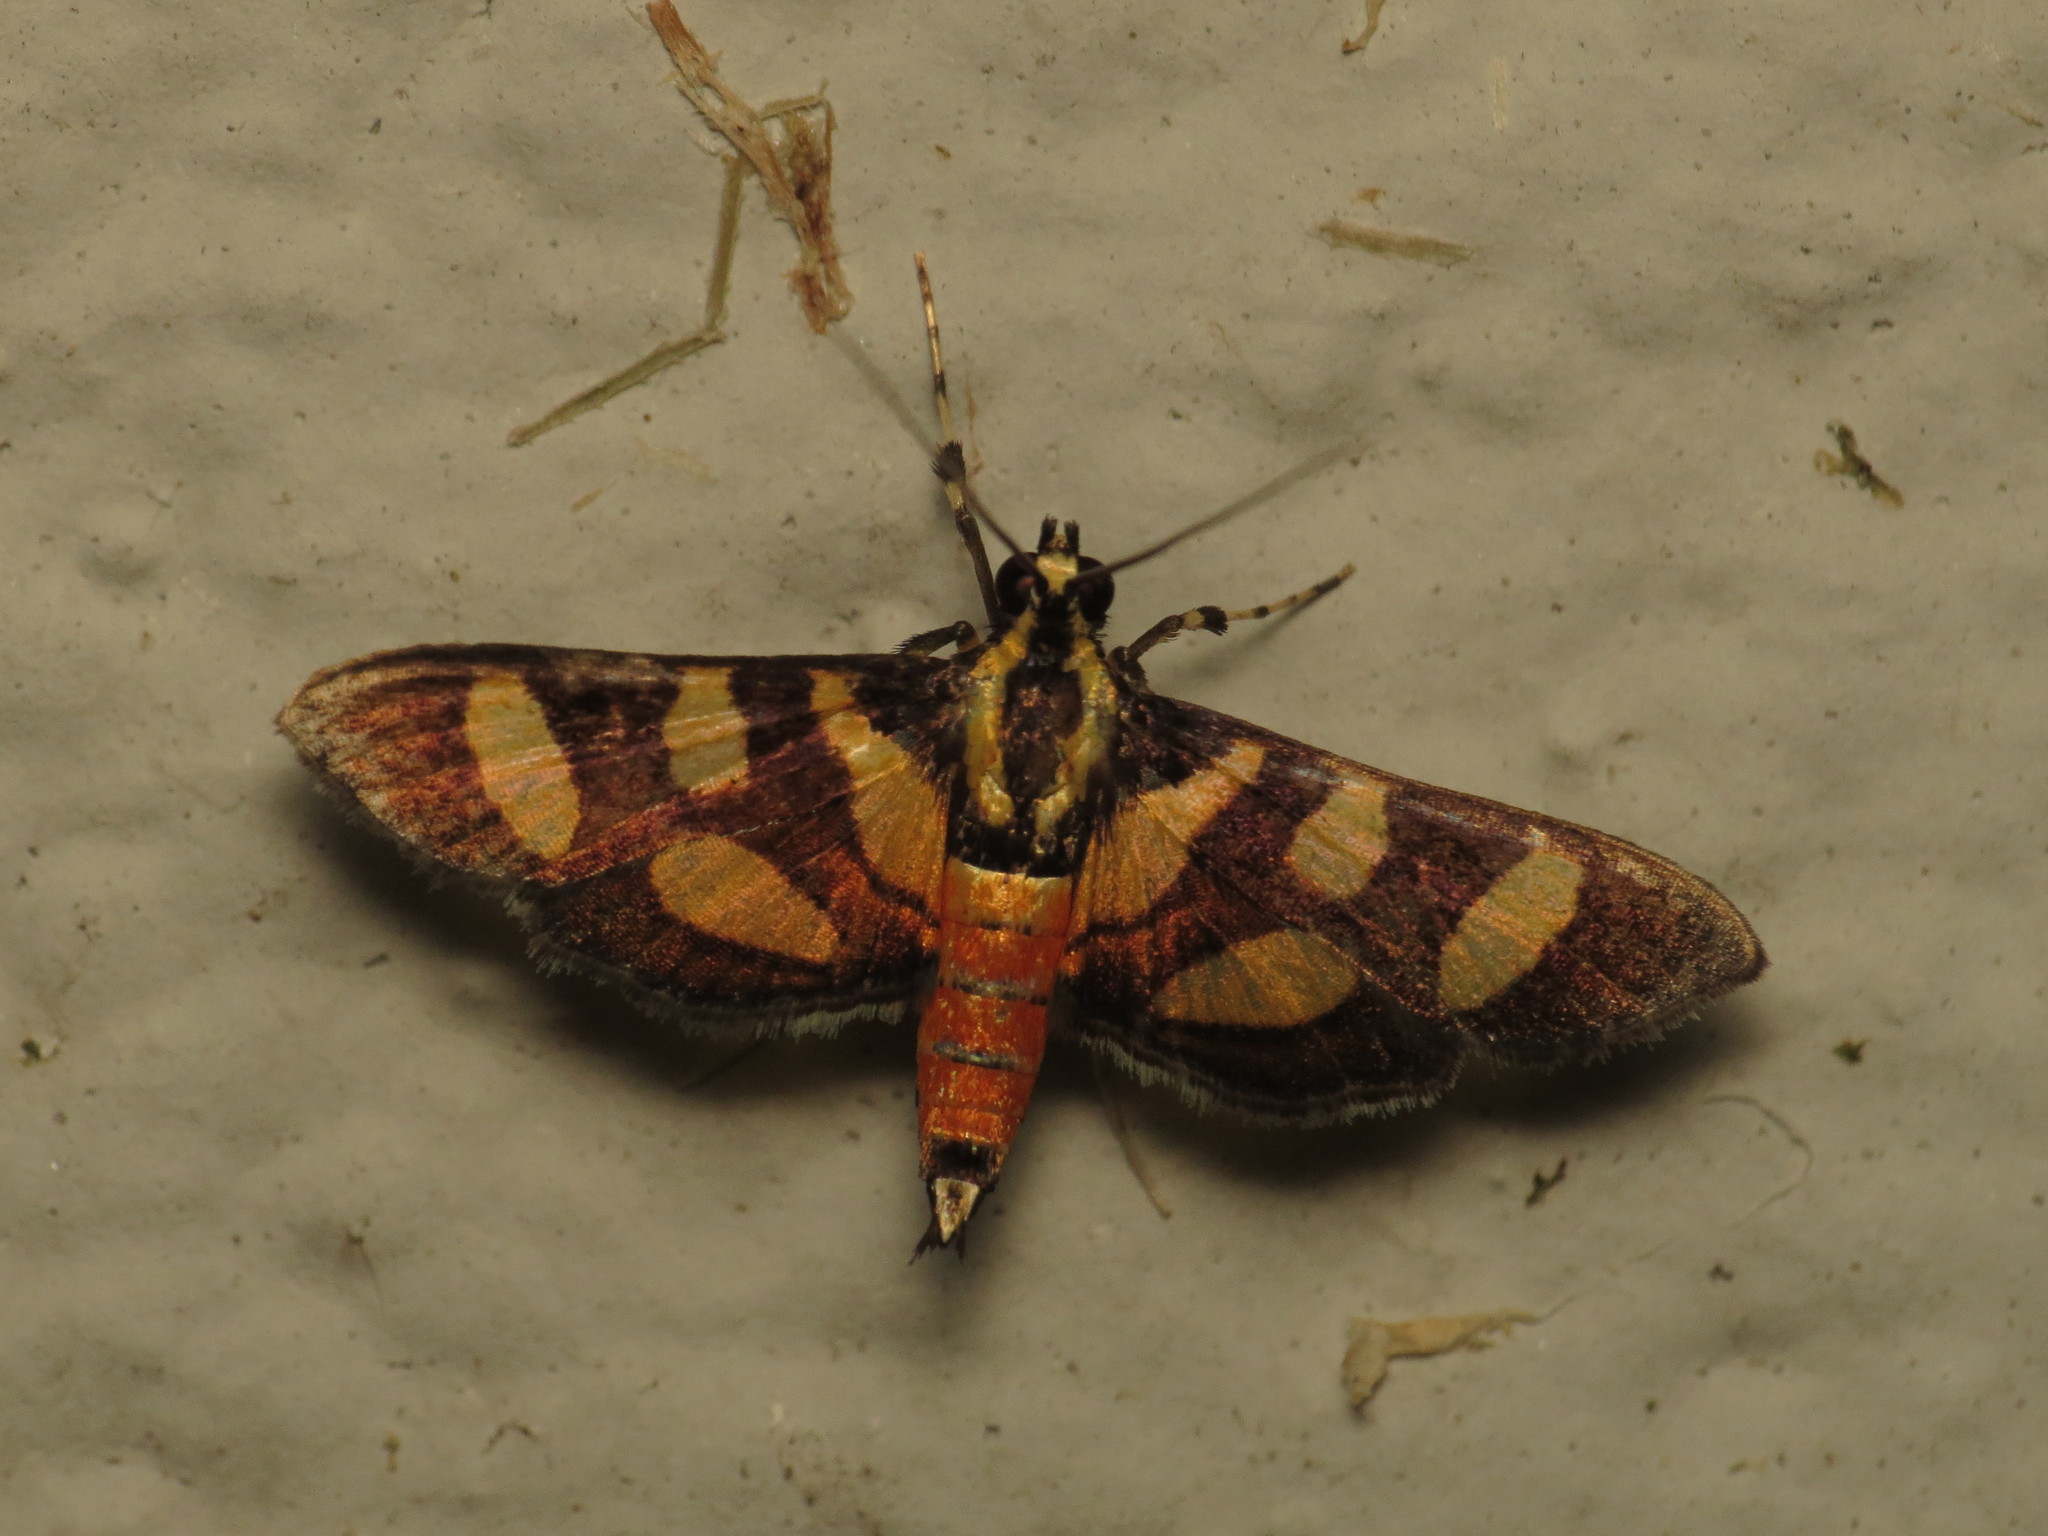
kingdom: Animalia
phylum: Arthropoda
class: Insecta
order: Lepidoptera
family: Crambidae
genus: Syngamia
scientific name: Syngamia florella
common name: Orange-spotted flower moth
